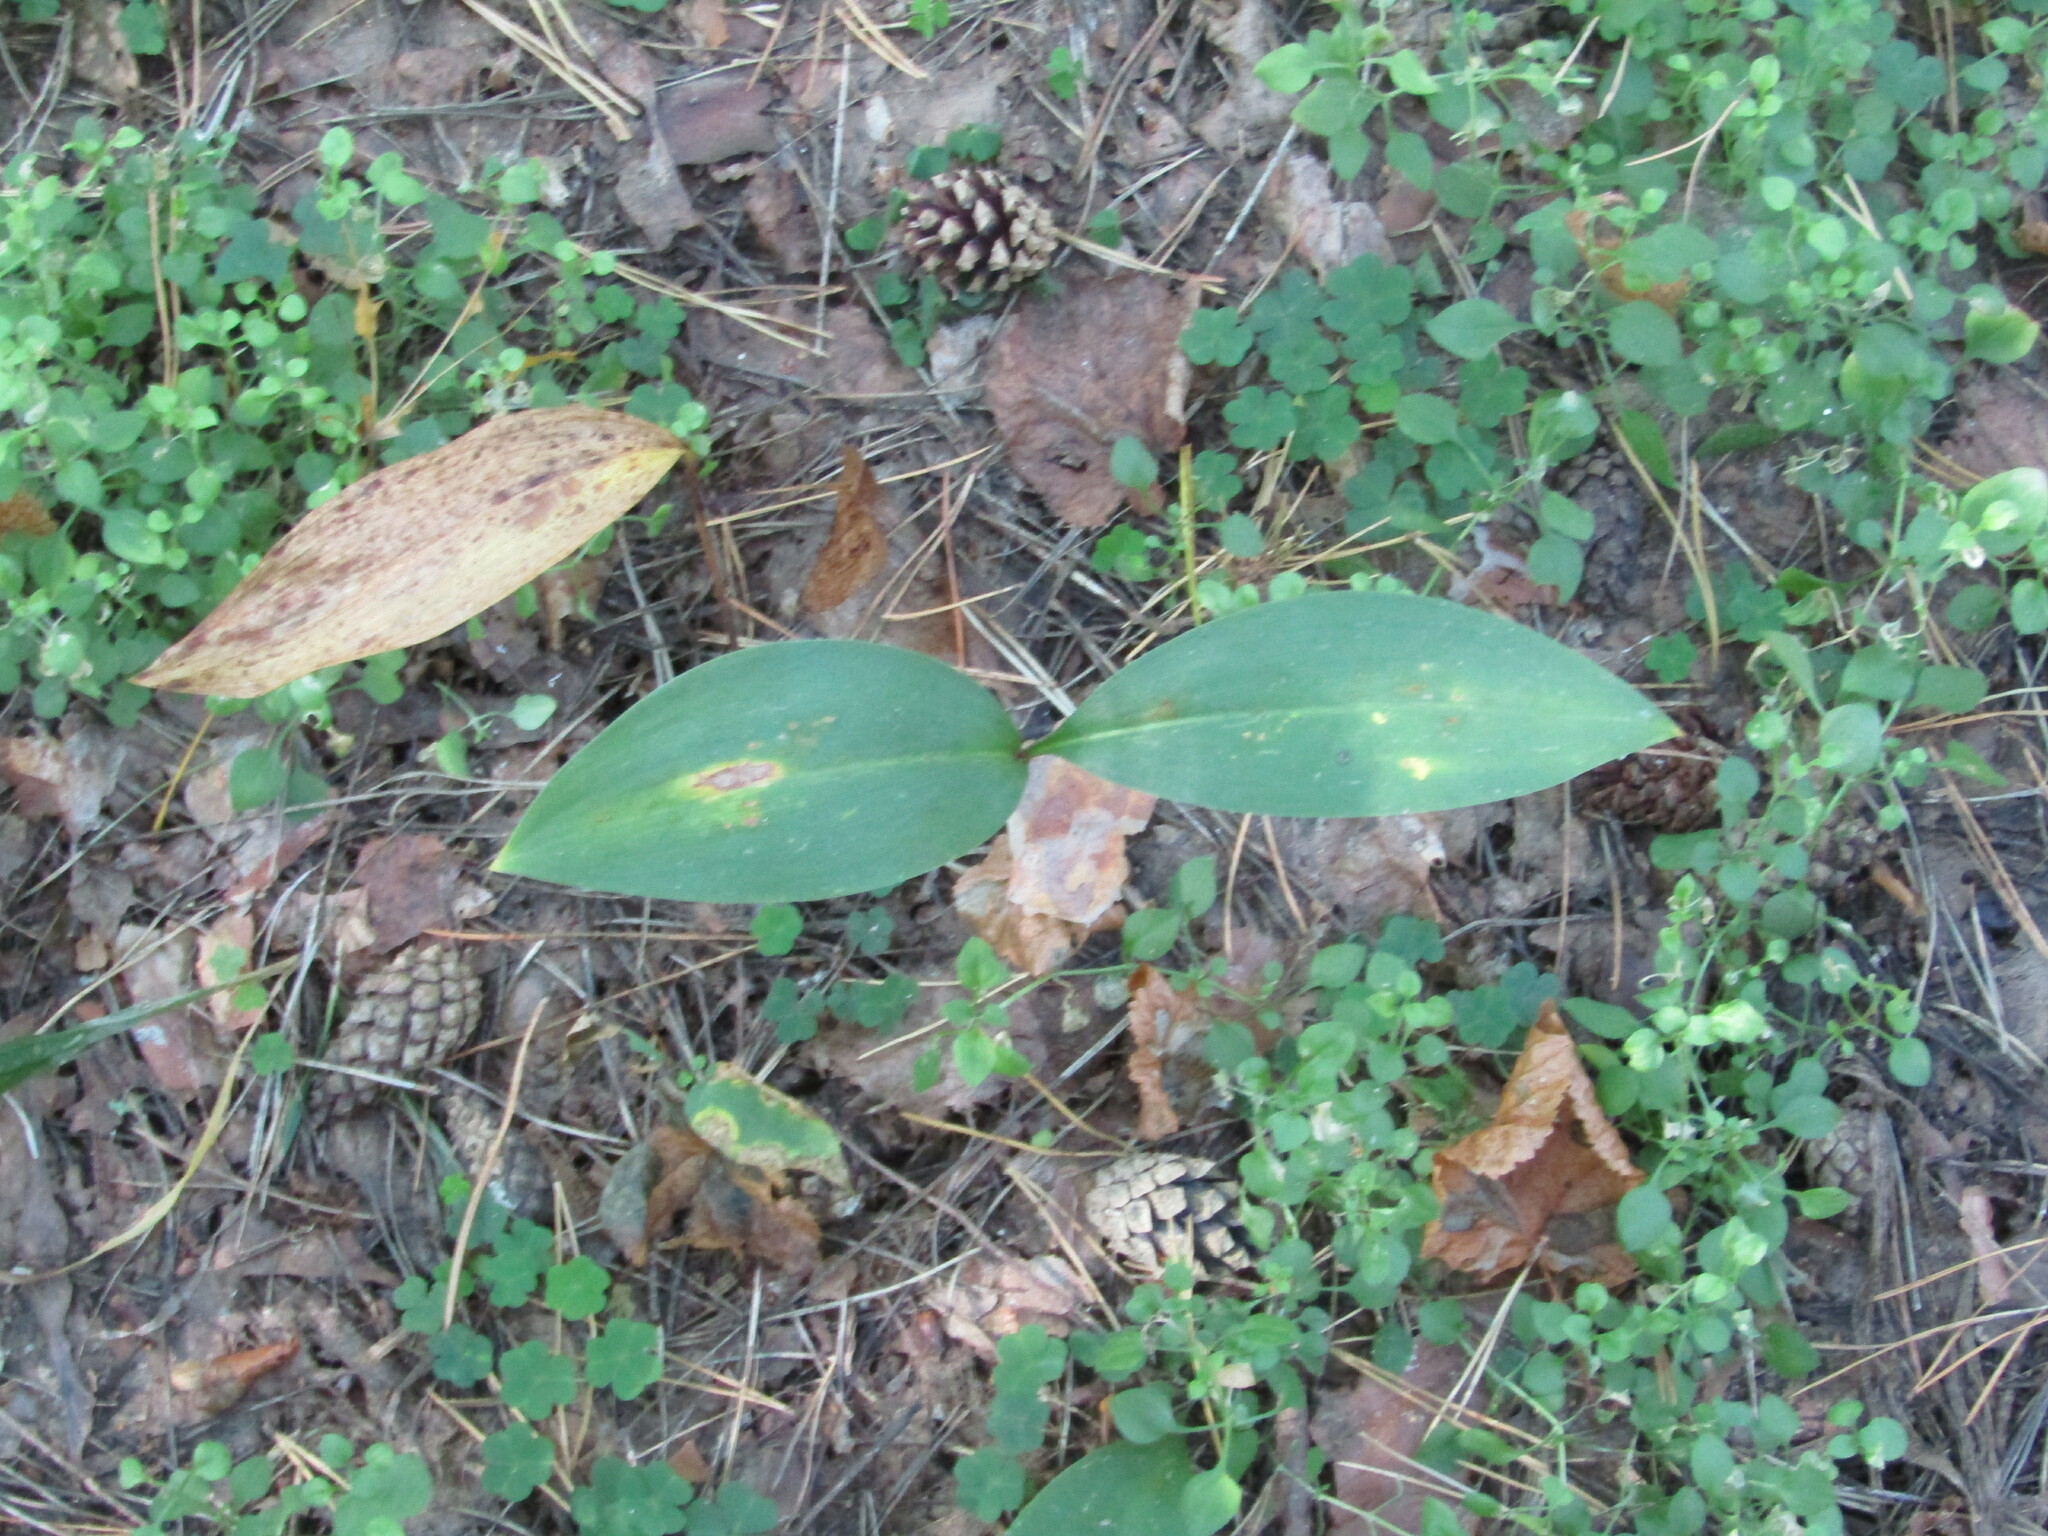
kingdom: Plantae
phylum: Tracheophyta
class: Liliopsida
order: Asparagales
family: Asparagaceae
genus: Convallaria
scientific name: Convallaria majalis
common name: Lily-of-the-valley
